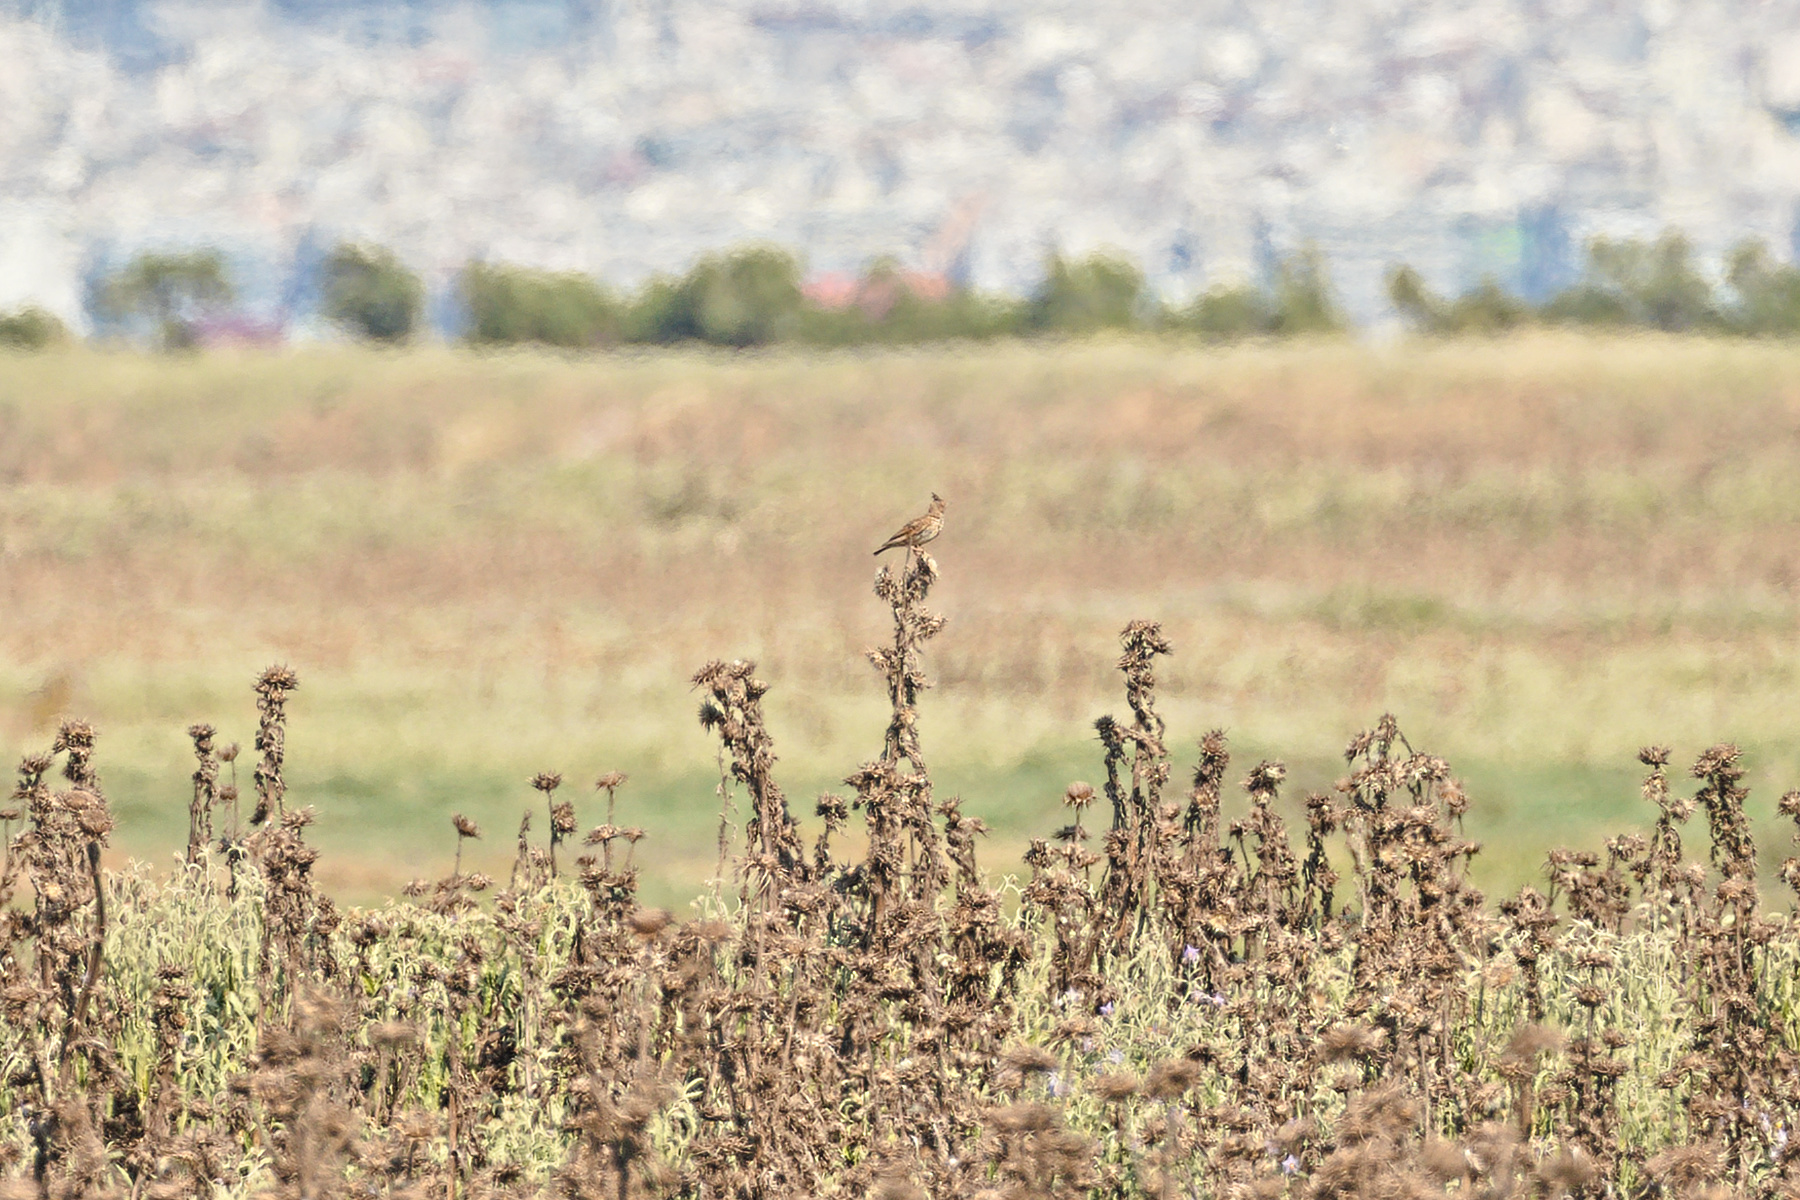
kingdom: Animalia
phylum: Chordata
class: Aves
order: Passeriformes
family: Alaudidae
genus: Galerida
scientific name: Galerida cristata
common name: Crested lark
